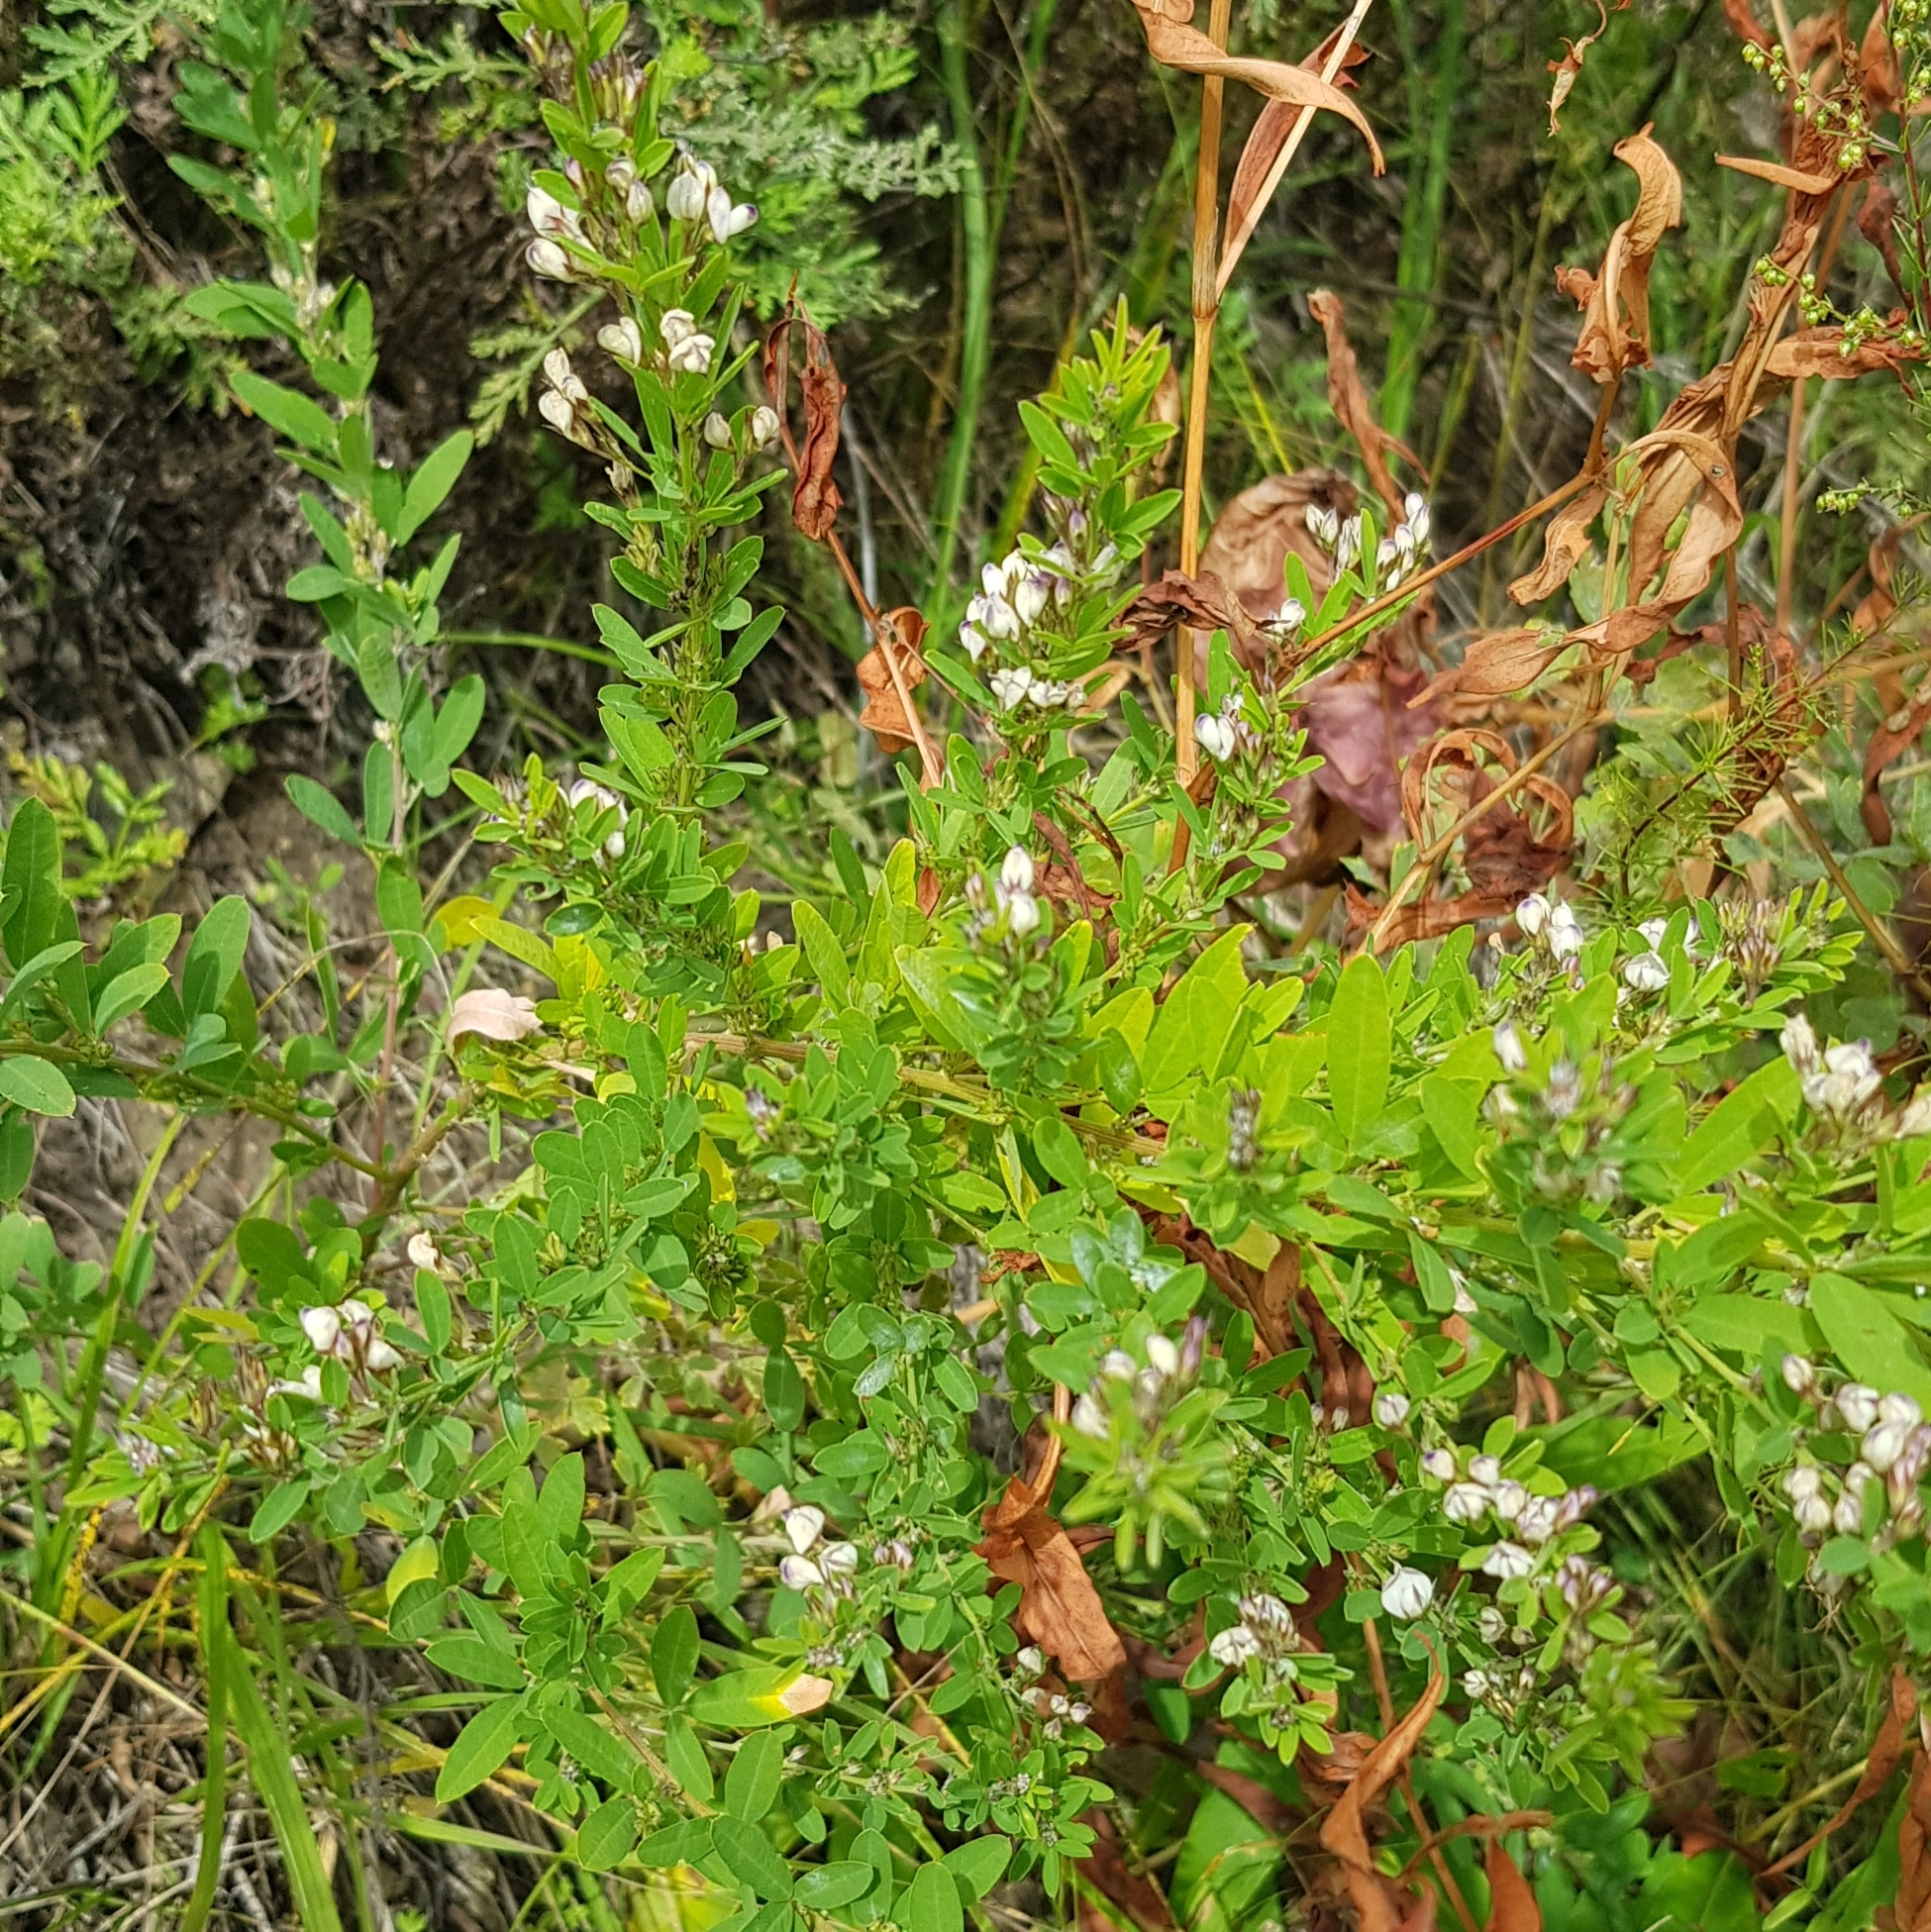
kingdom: Plantae
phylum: Tracheophyta
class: Magnoliopsida
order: Fabales
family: Fabaceae
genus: Lespedeza
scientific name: Lespedeza juncea
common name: Siberian lespedeza
